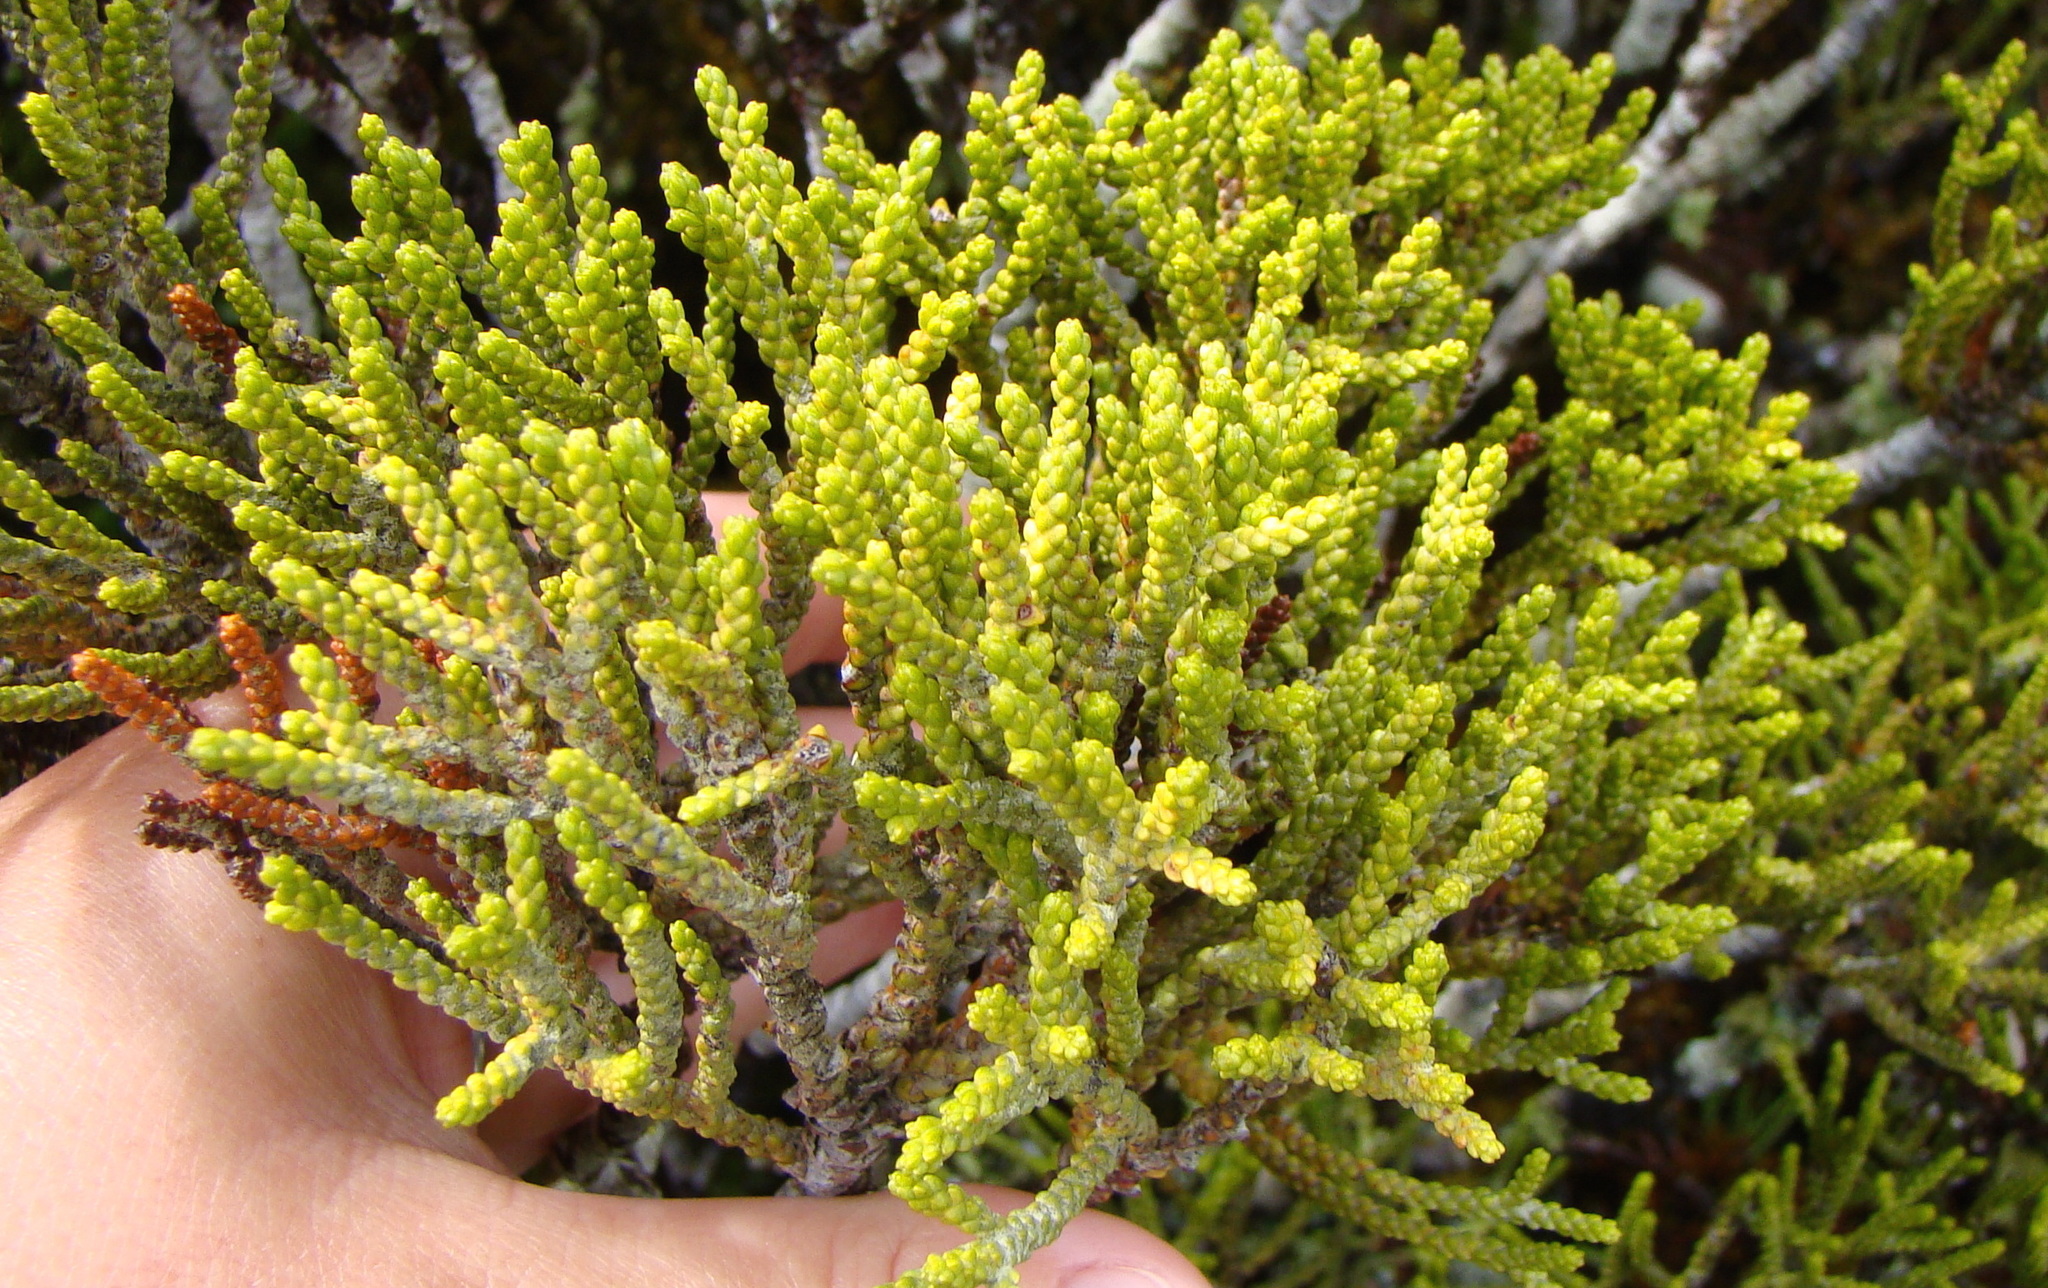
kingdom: Plantae
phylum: Tracheophyta
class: Pinopsida
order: Pinales
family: Podocarpaceae
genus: Halocarpus
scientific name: Halocarpus biformis
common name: Alpine tarwood
